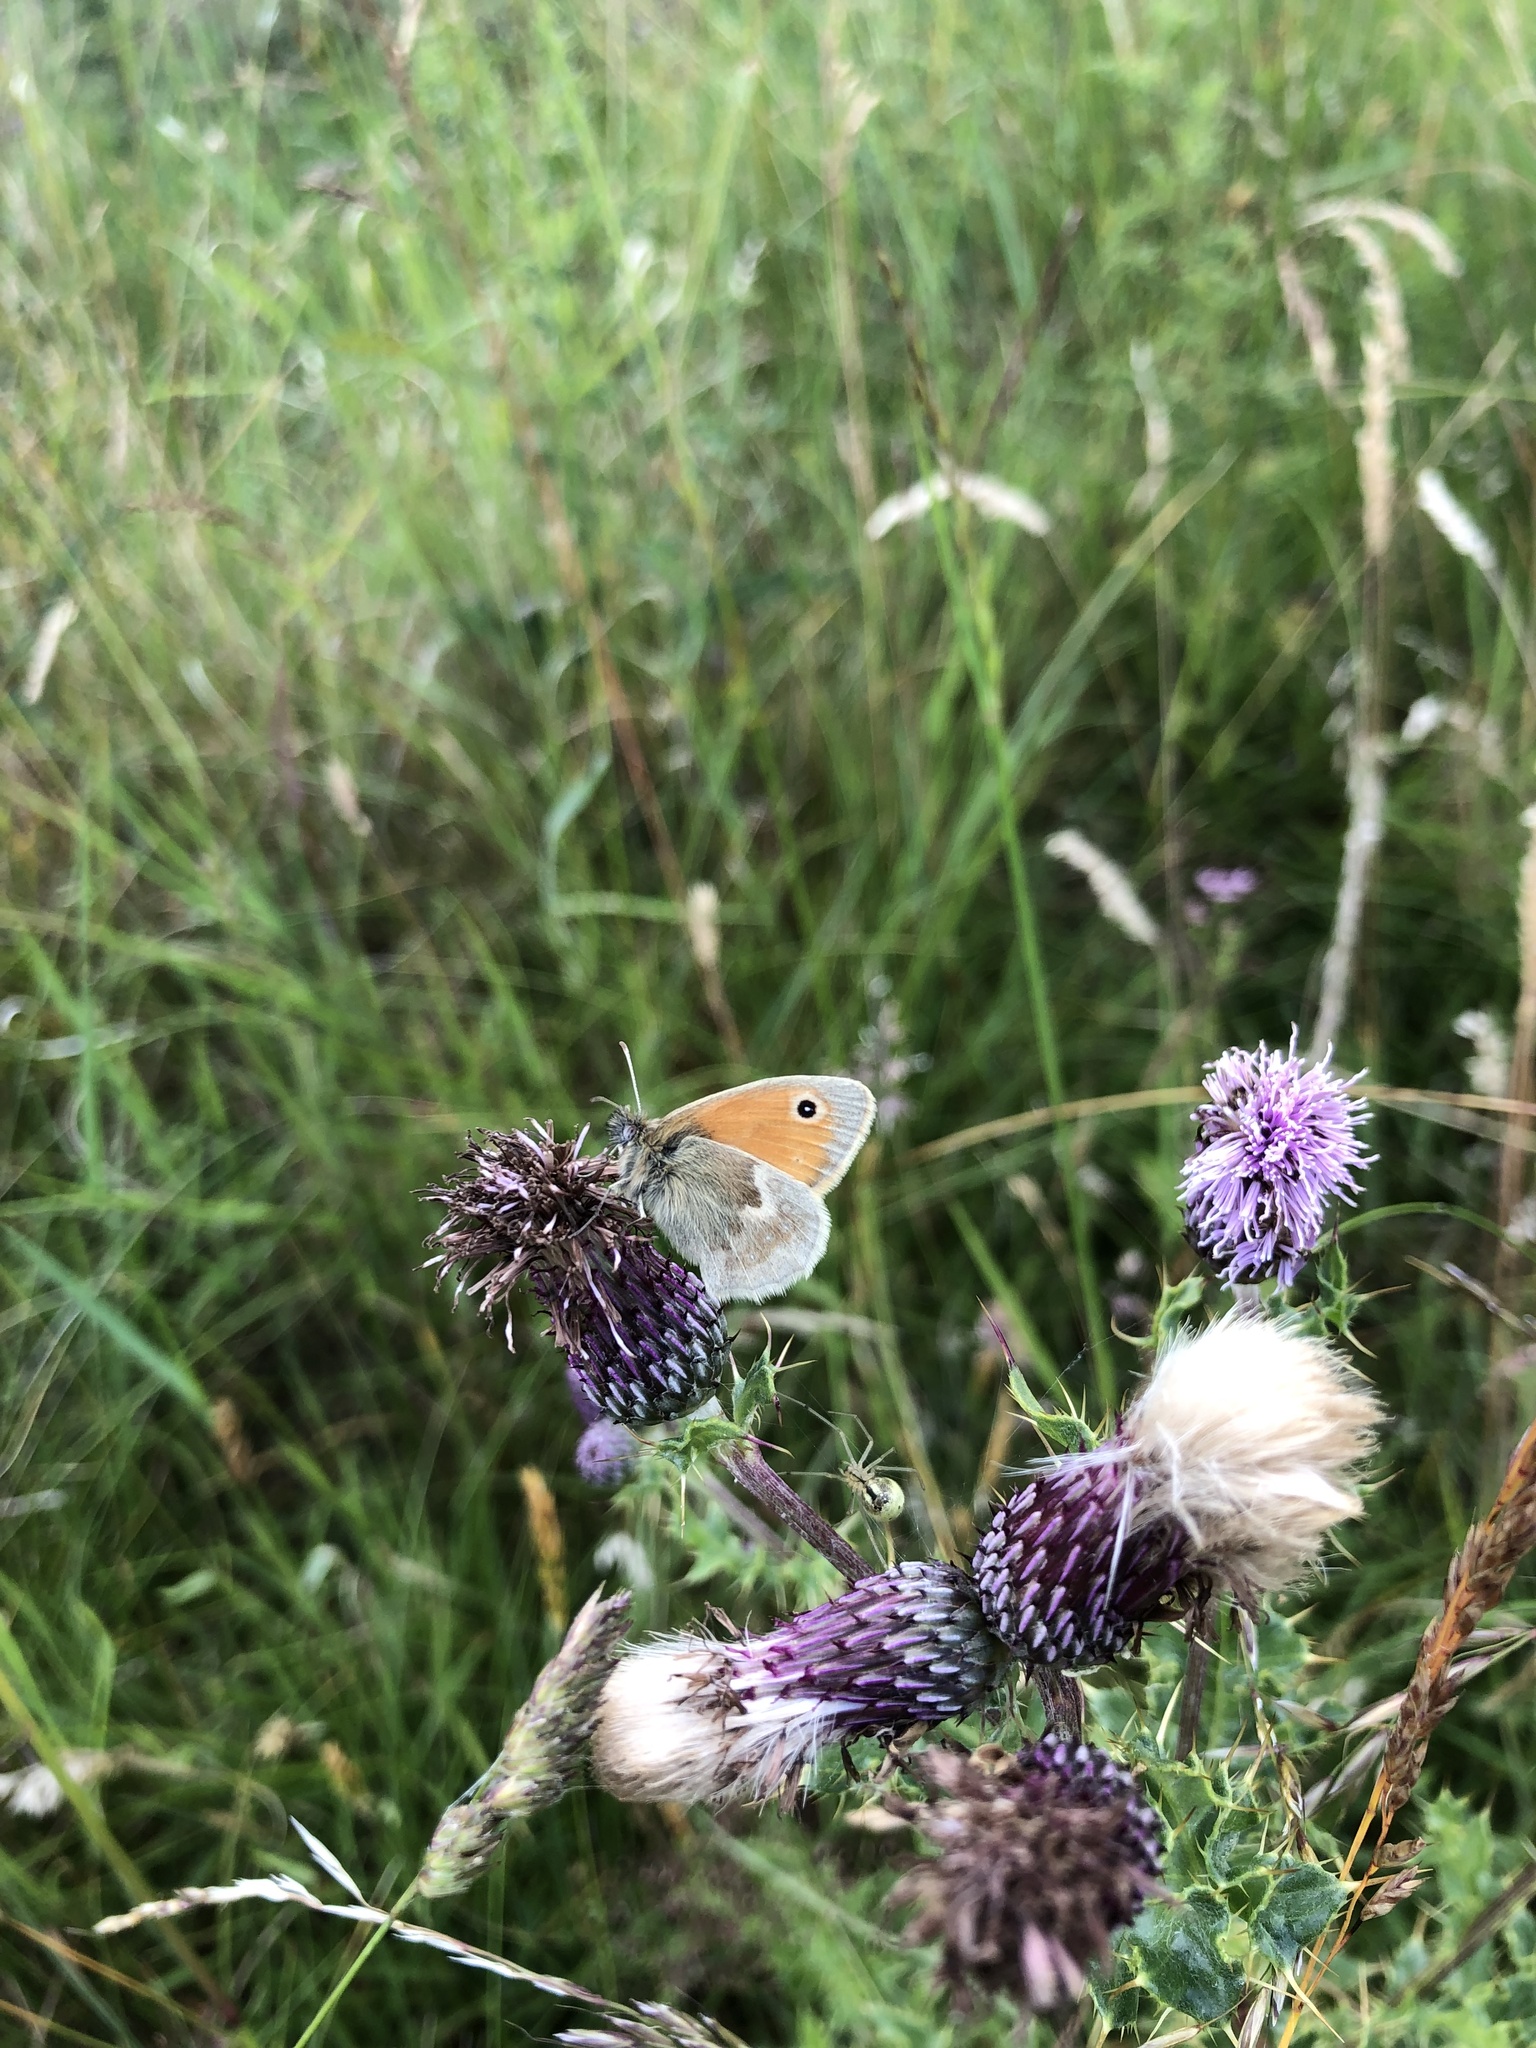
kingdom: Animalia
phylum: Arthropoda
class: Insecta
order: Lepidoptera
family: Nymphalidae
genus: Coenonympha
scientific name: Coenonympha pamphilus
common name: Small heath
